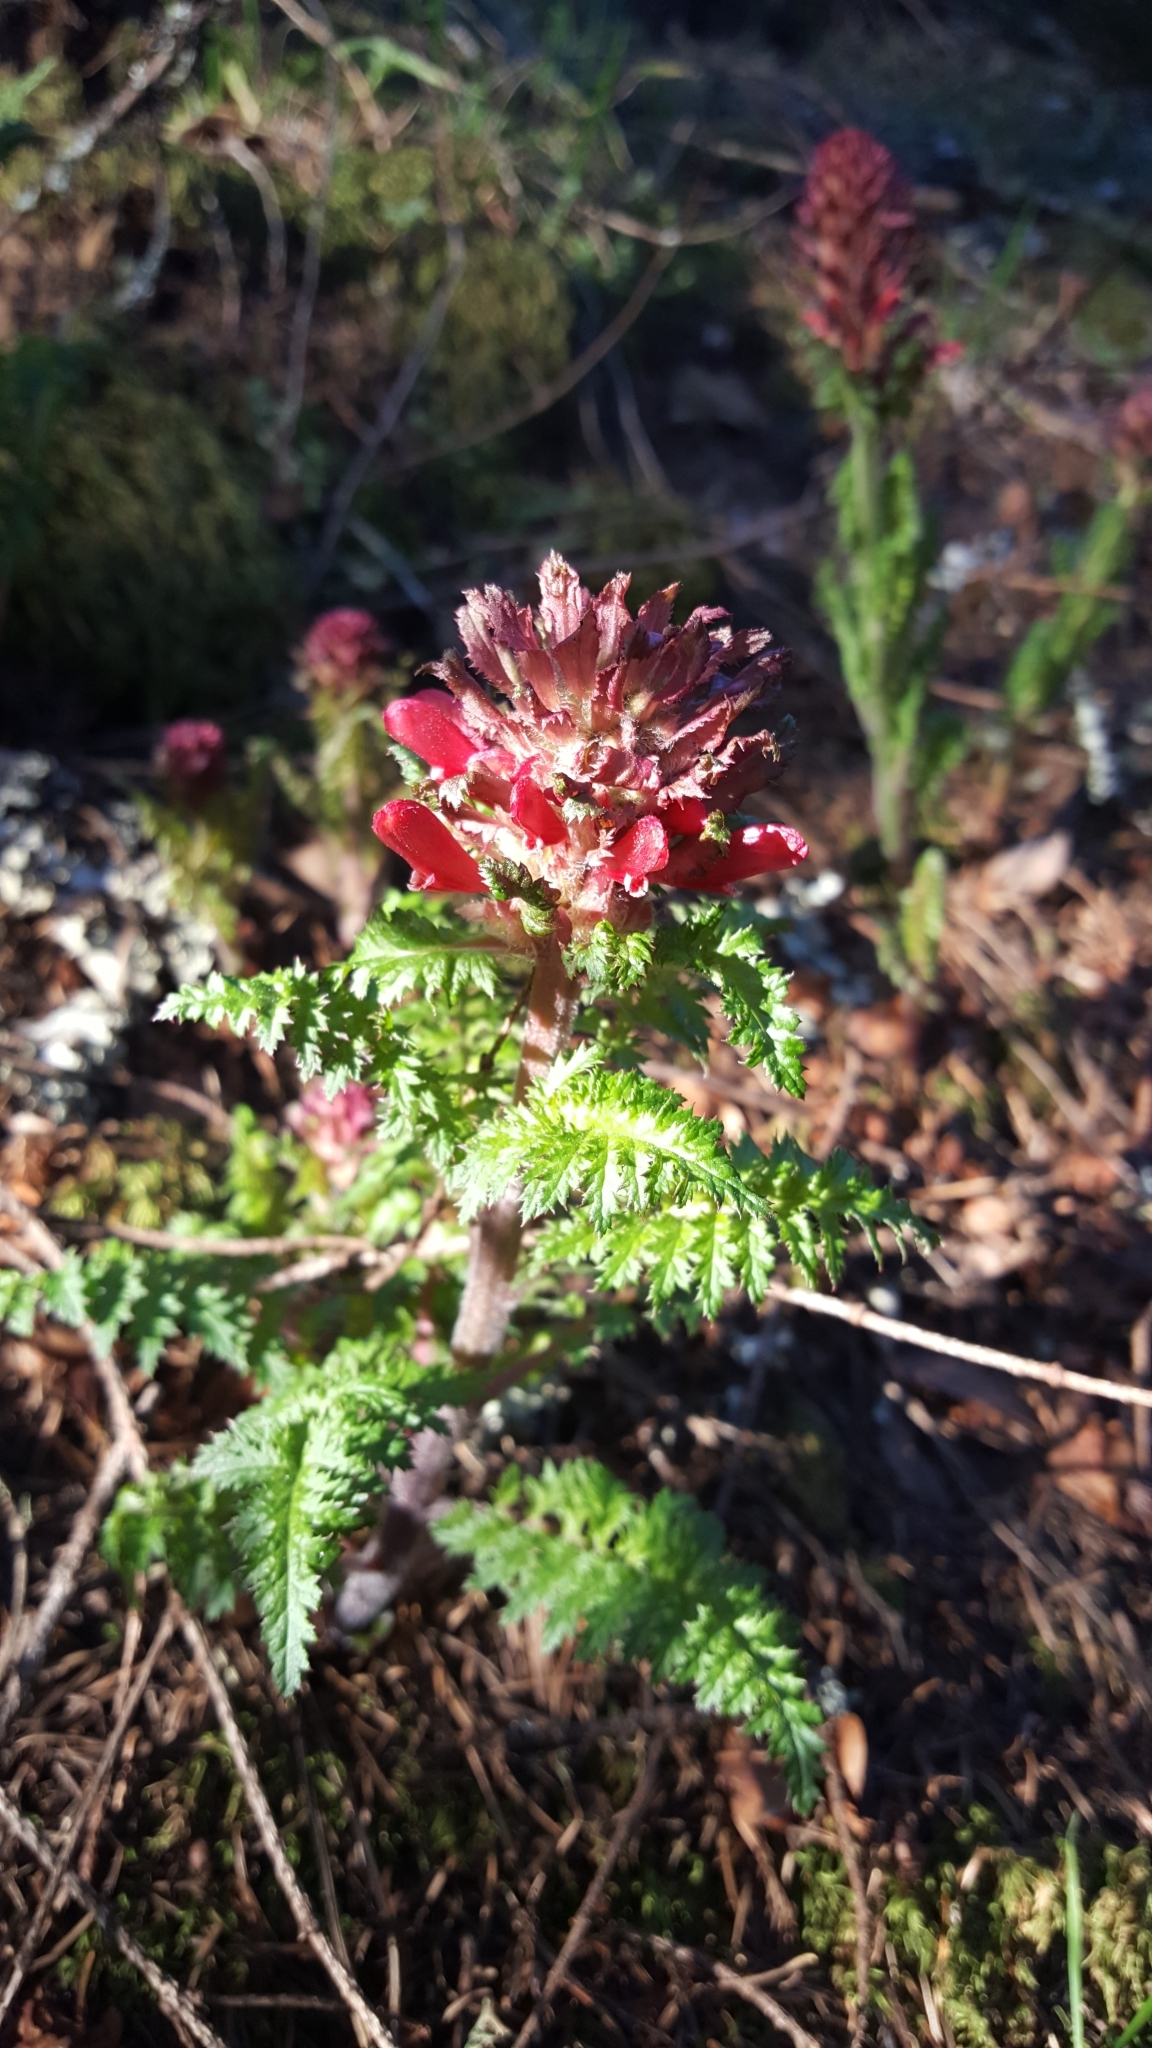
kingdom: Plantae
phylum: Tracheophyta
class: Magnoliopsida
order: Lamiales
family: Orobanchaceae
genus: Pedicularis
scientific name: Pedicularis densiflora
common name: Indian warrior
